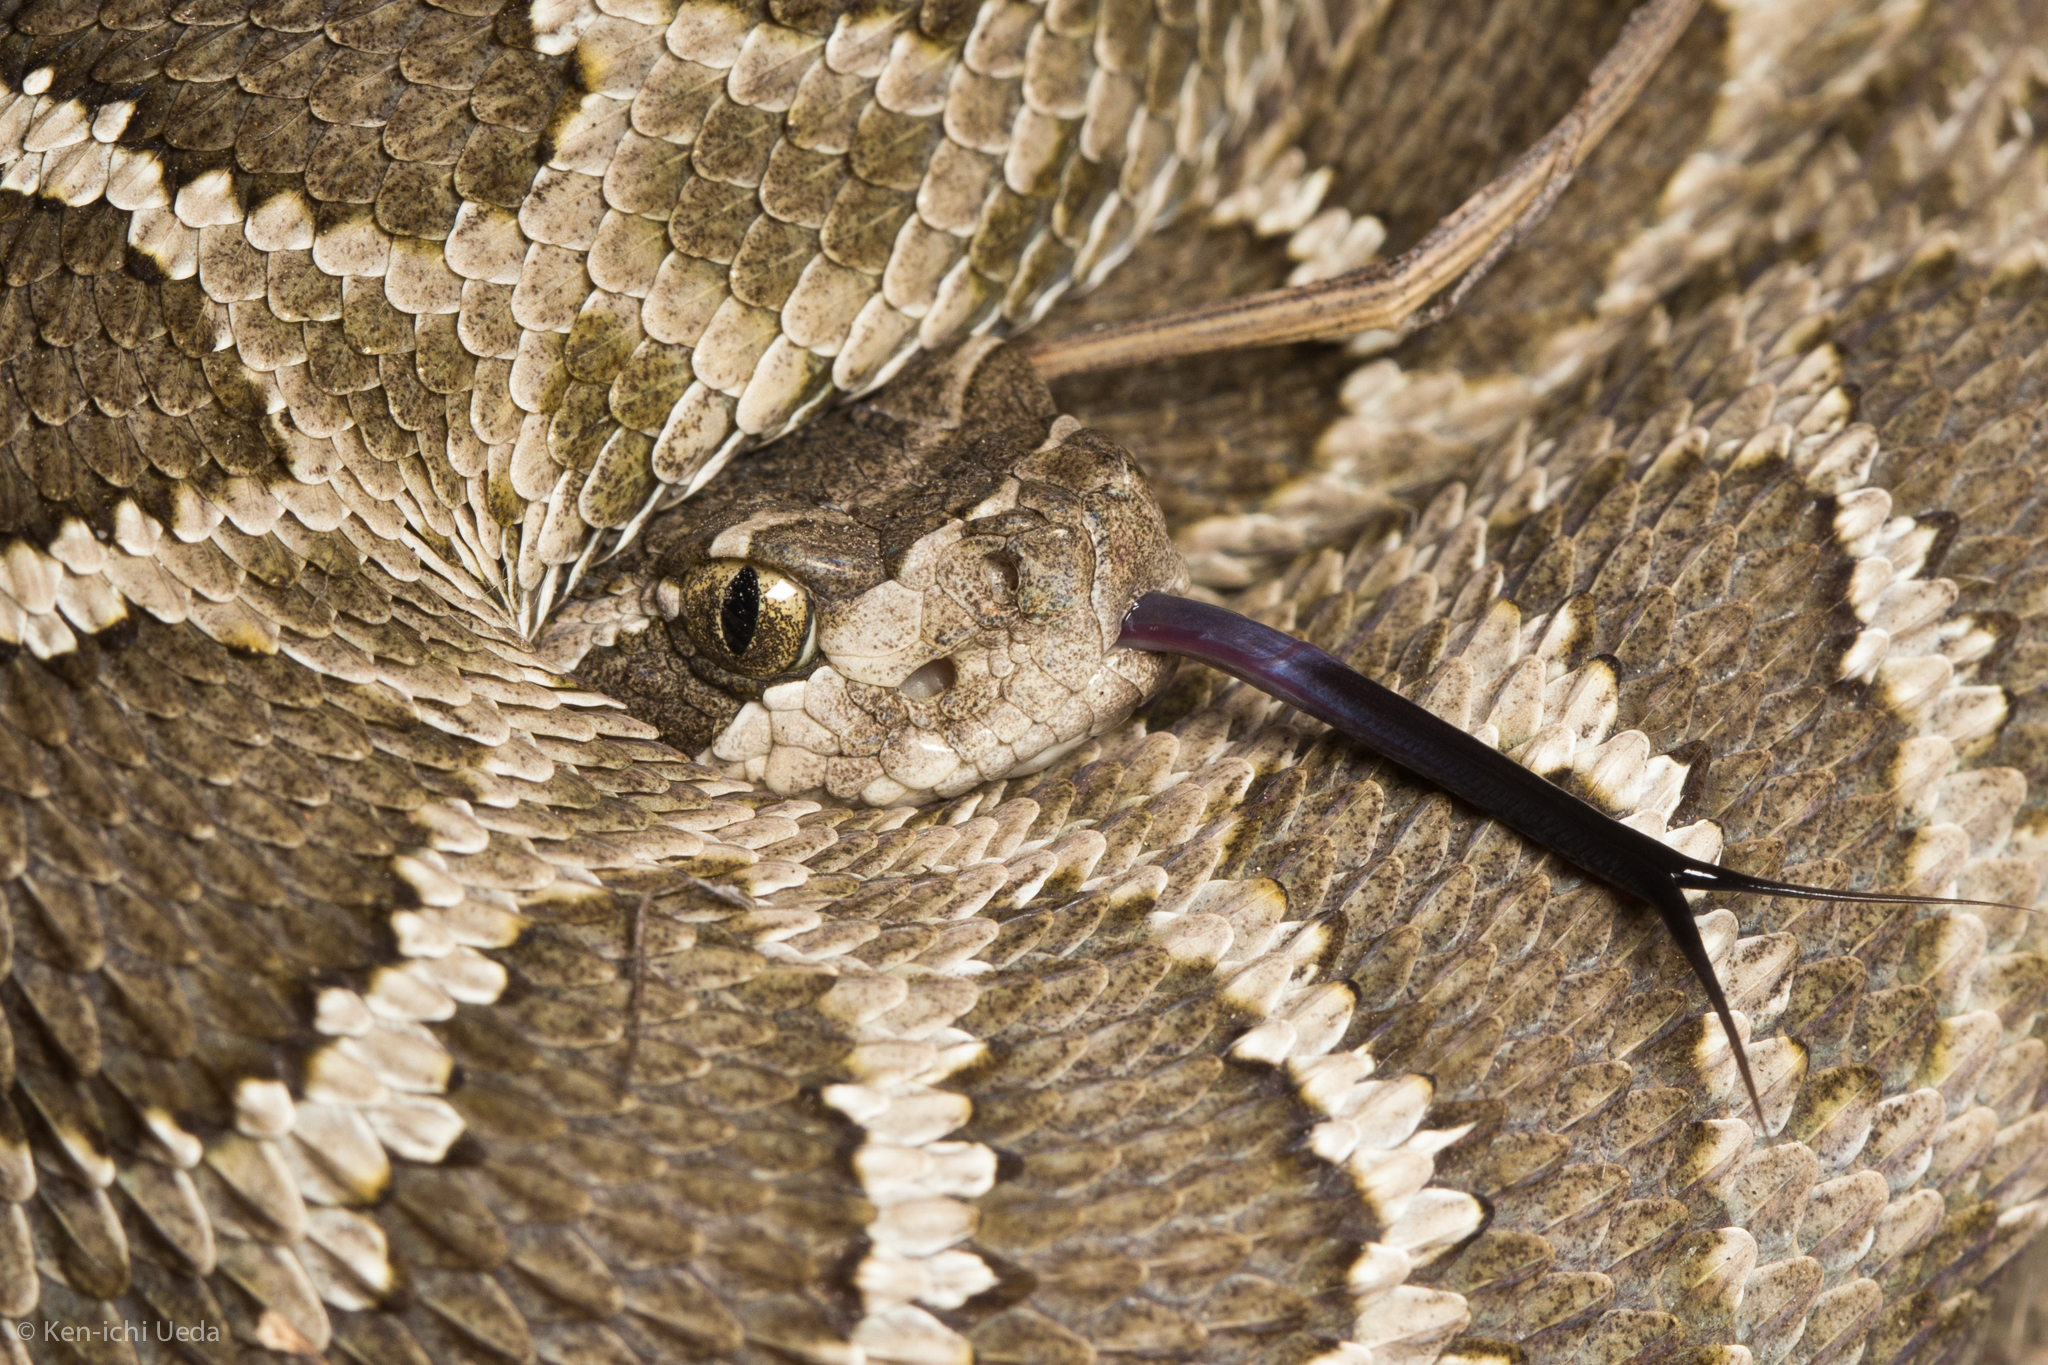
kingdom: Animalia
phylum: Chordata
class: Squamata
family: Viperidae
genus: Crotalus
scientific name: Crotalus oreganus
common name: Abyssus
